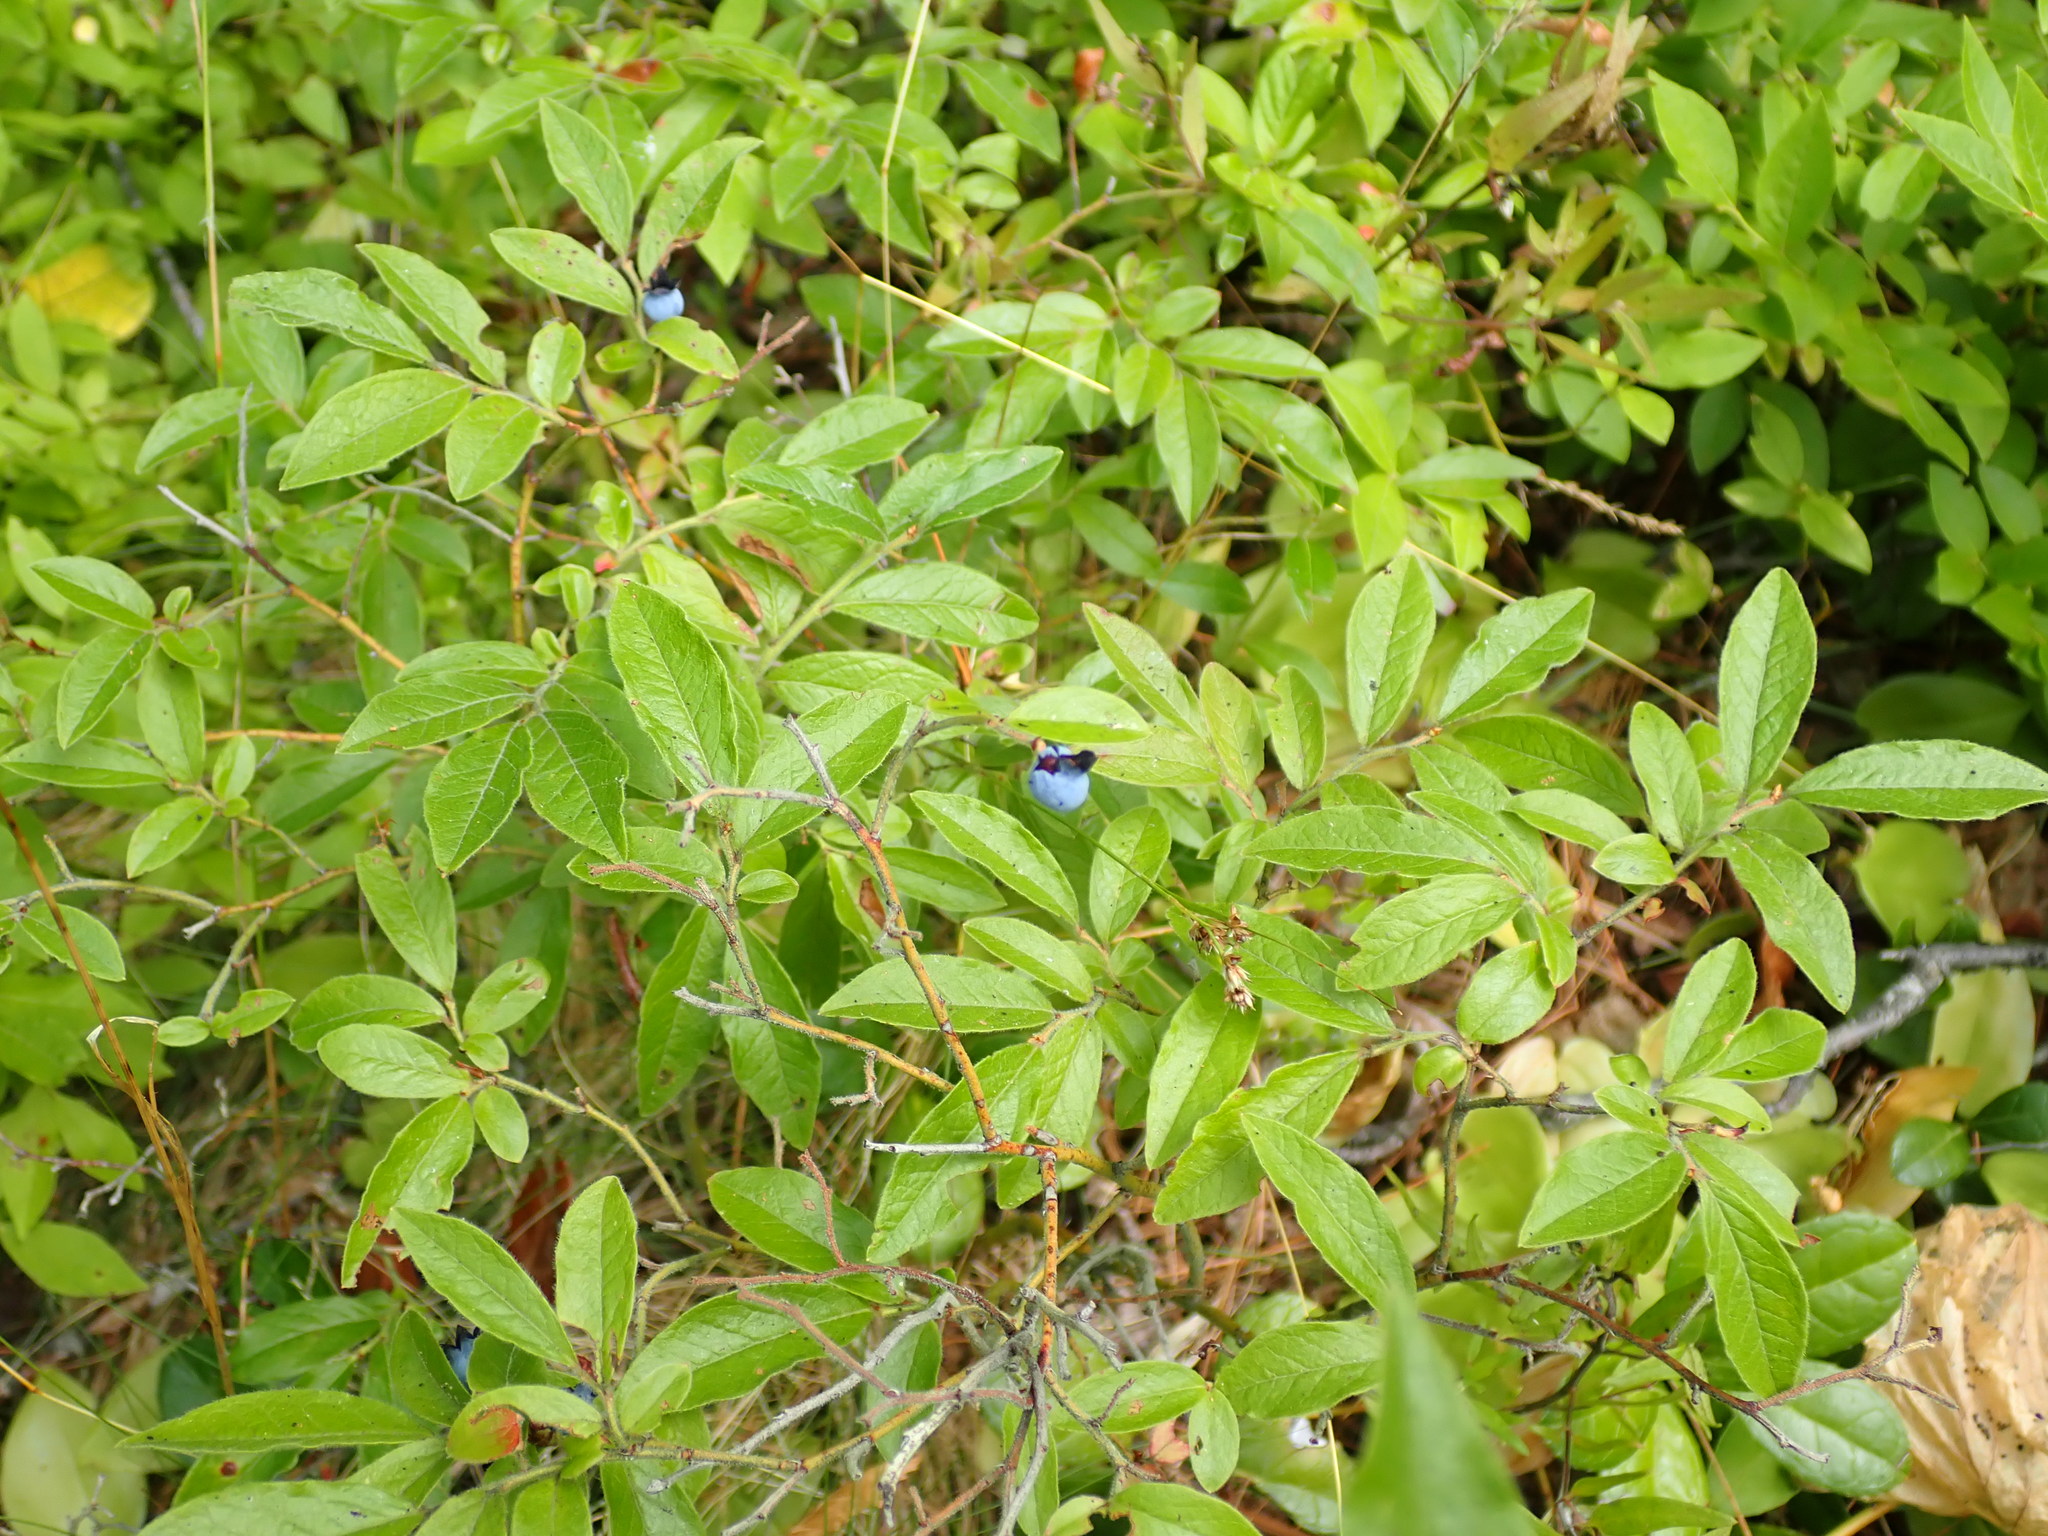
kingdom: Plantae
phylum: Tracheophyta
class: Magnoliopsida
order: Ericales
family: Ericaceae
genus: Vaccinium
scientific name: Vaccinium angustifolium
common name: Early lowbush blueberry
